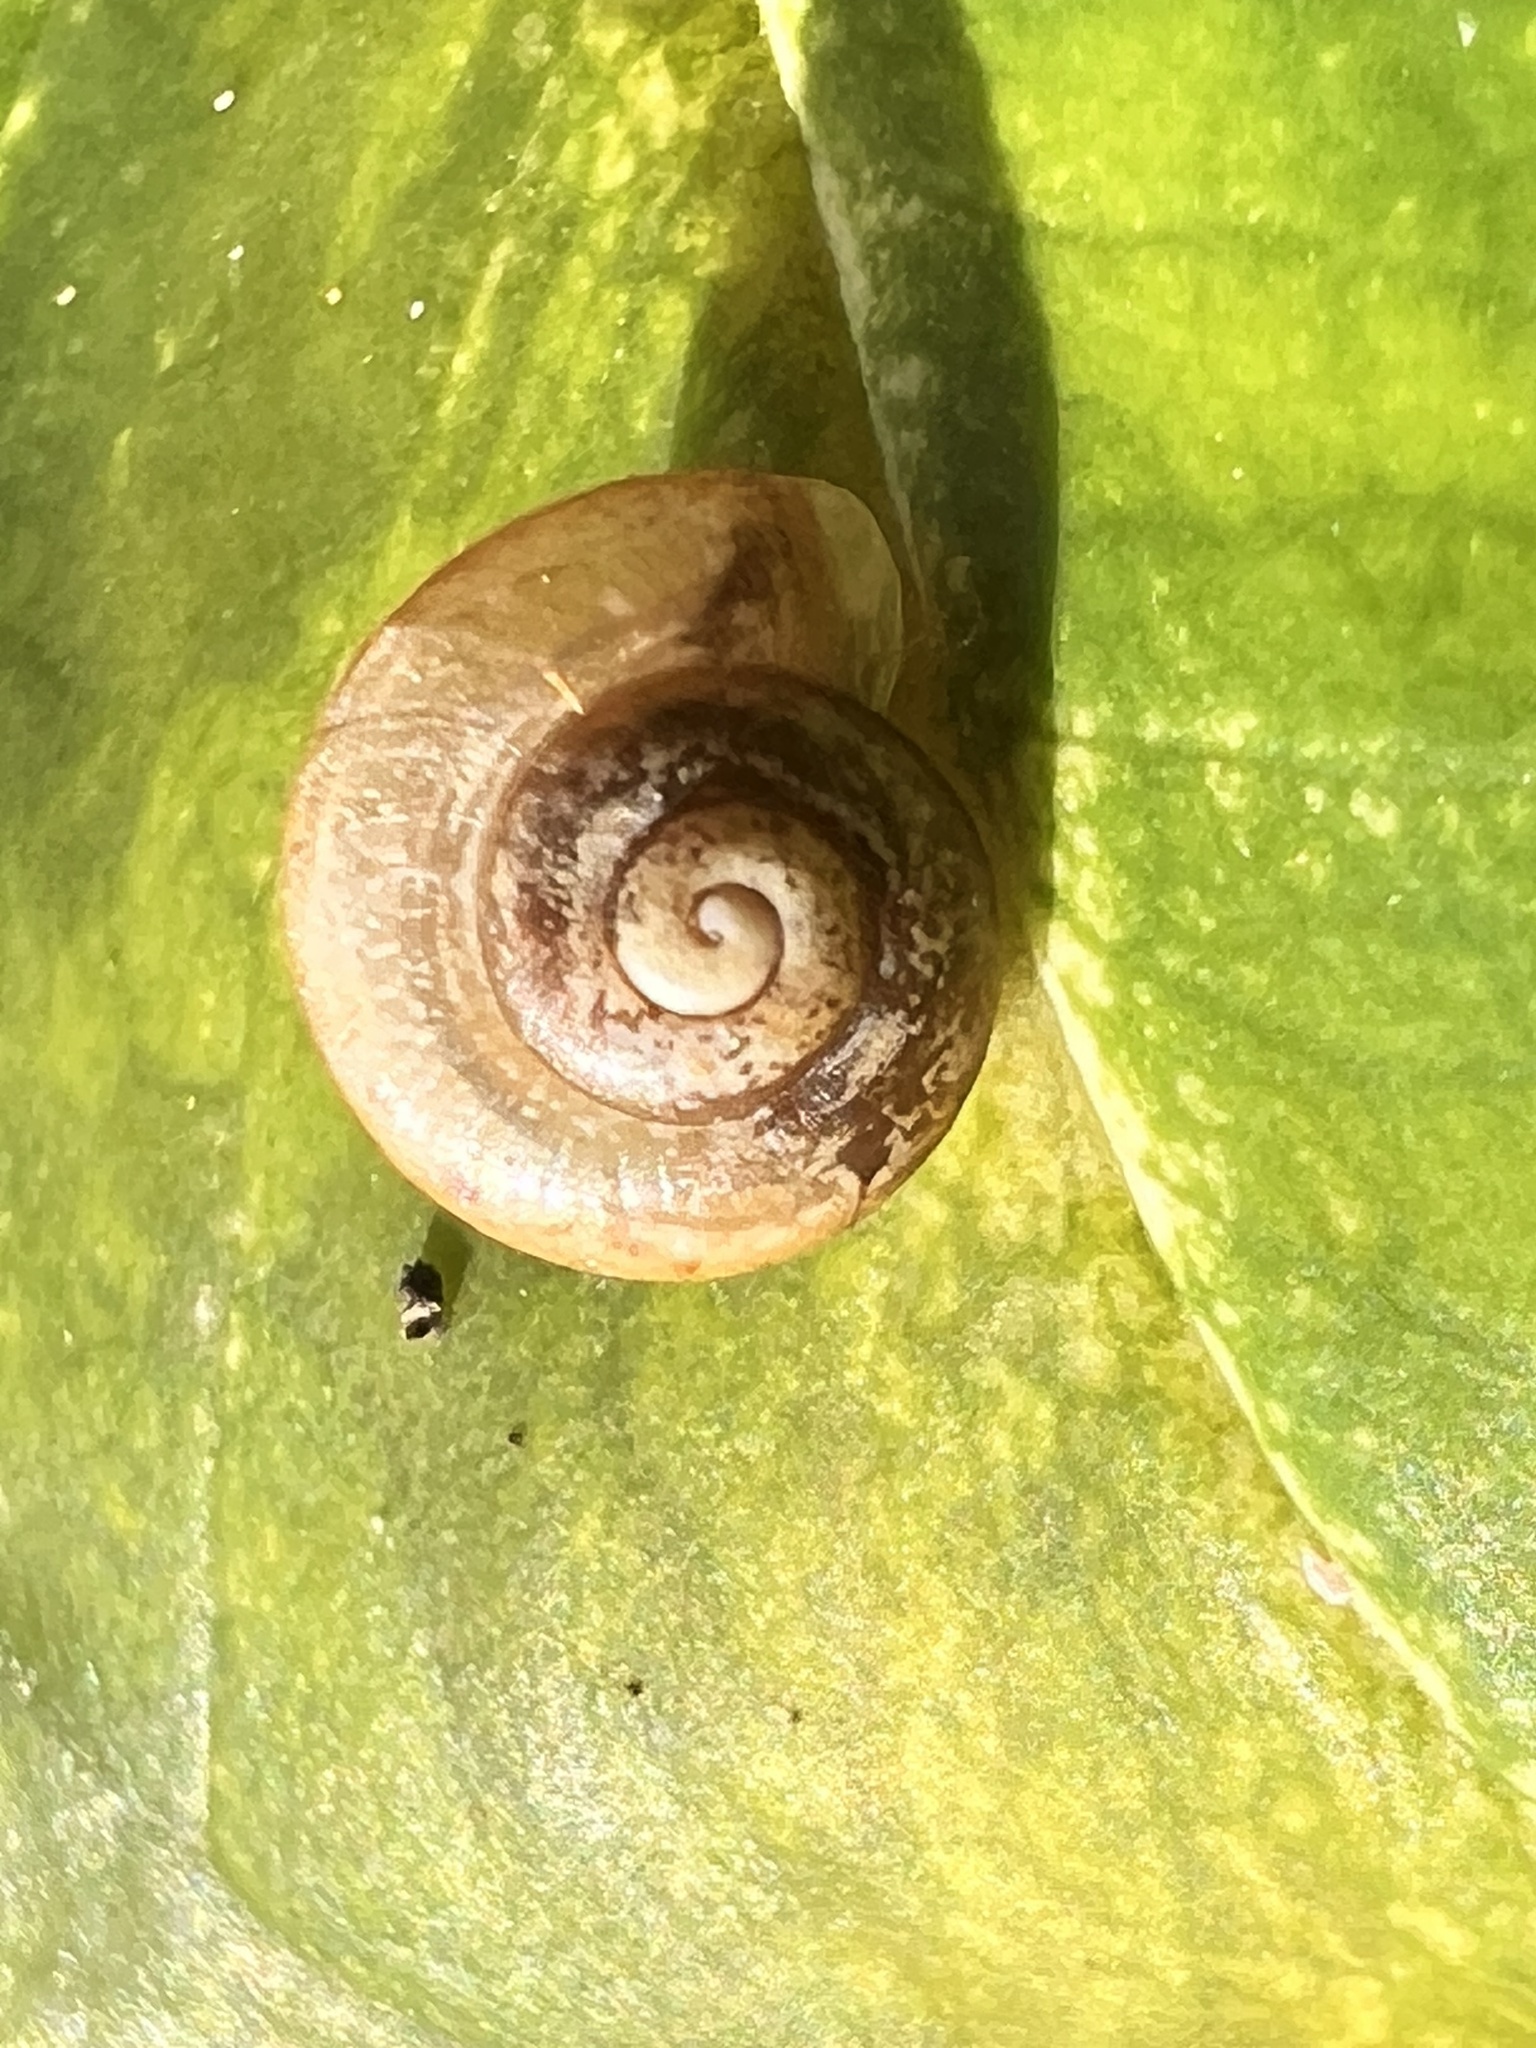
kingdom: Animalia
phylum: Mollusca
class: Gastropoda
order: Stylommatophora
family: Camaenidae
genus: Bradybaena
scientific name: Bradybaena similaris
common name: Asian trampsnail
